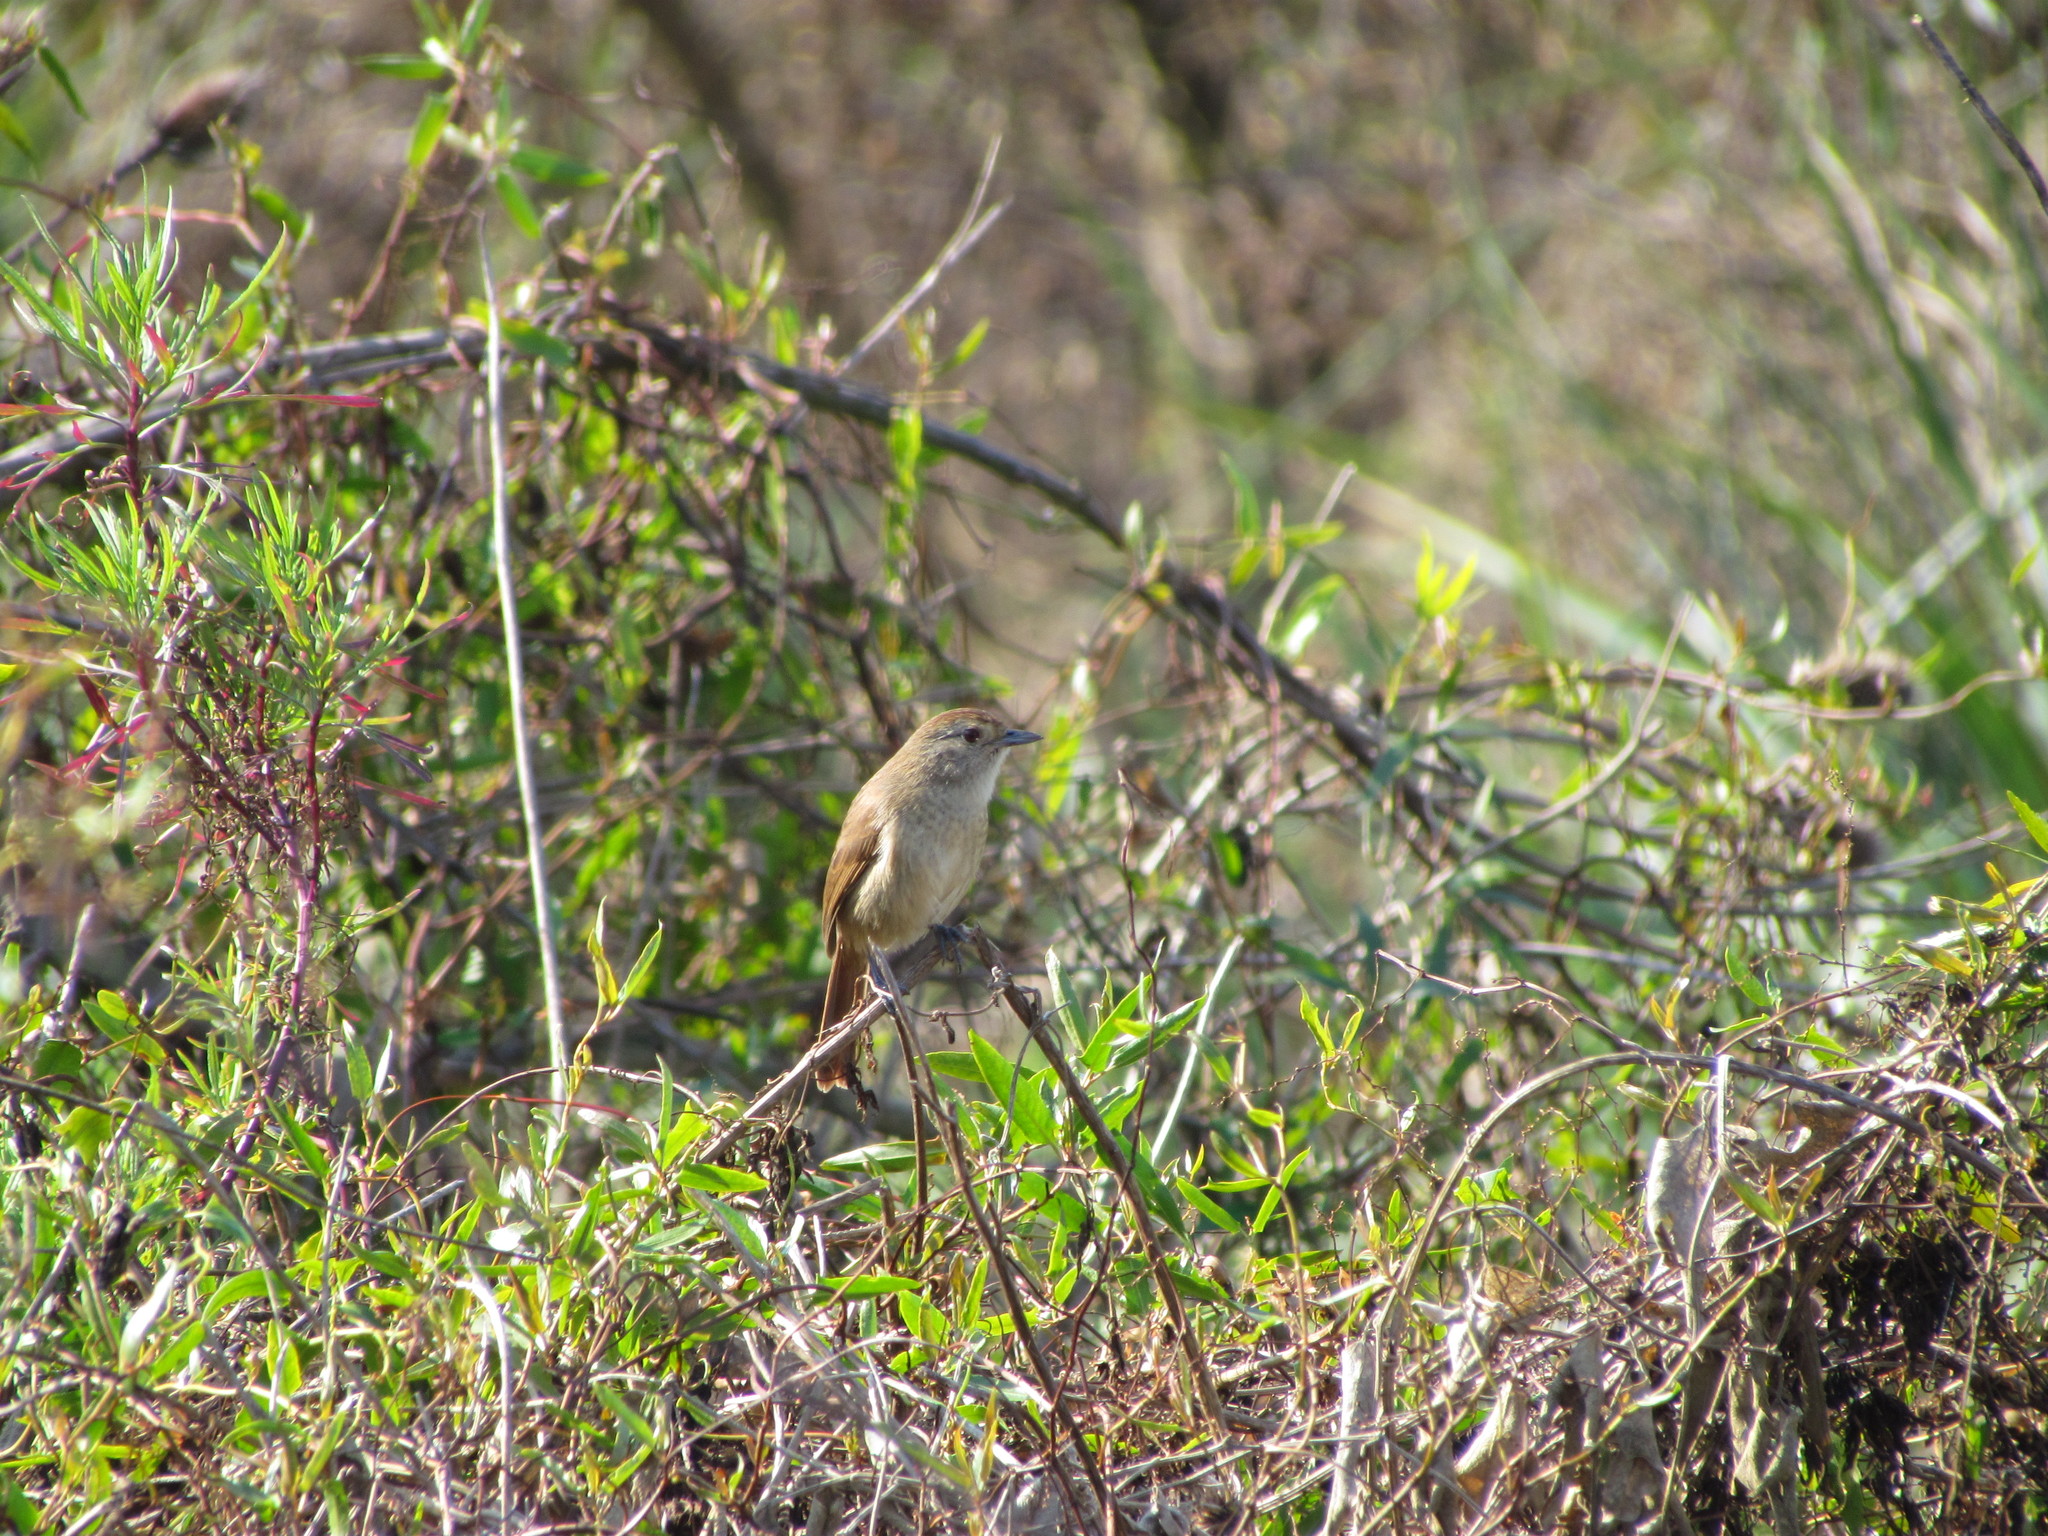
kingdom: Animalia
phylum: Chordata
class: Aves
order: Passeriformes
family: Thamnophilidae
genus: Thamnophilus
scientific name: Thamnophilus ruficapillus
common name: Rufous-capped antshrike
